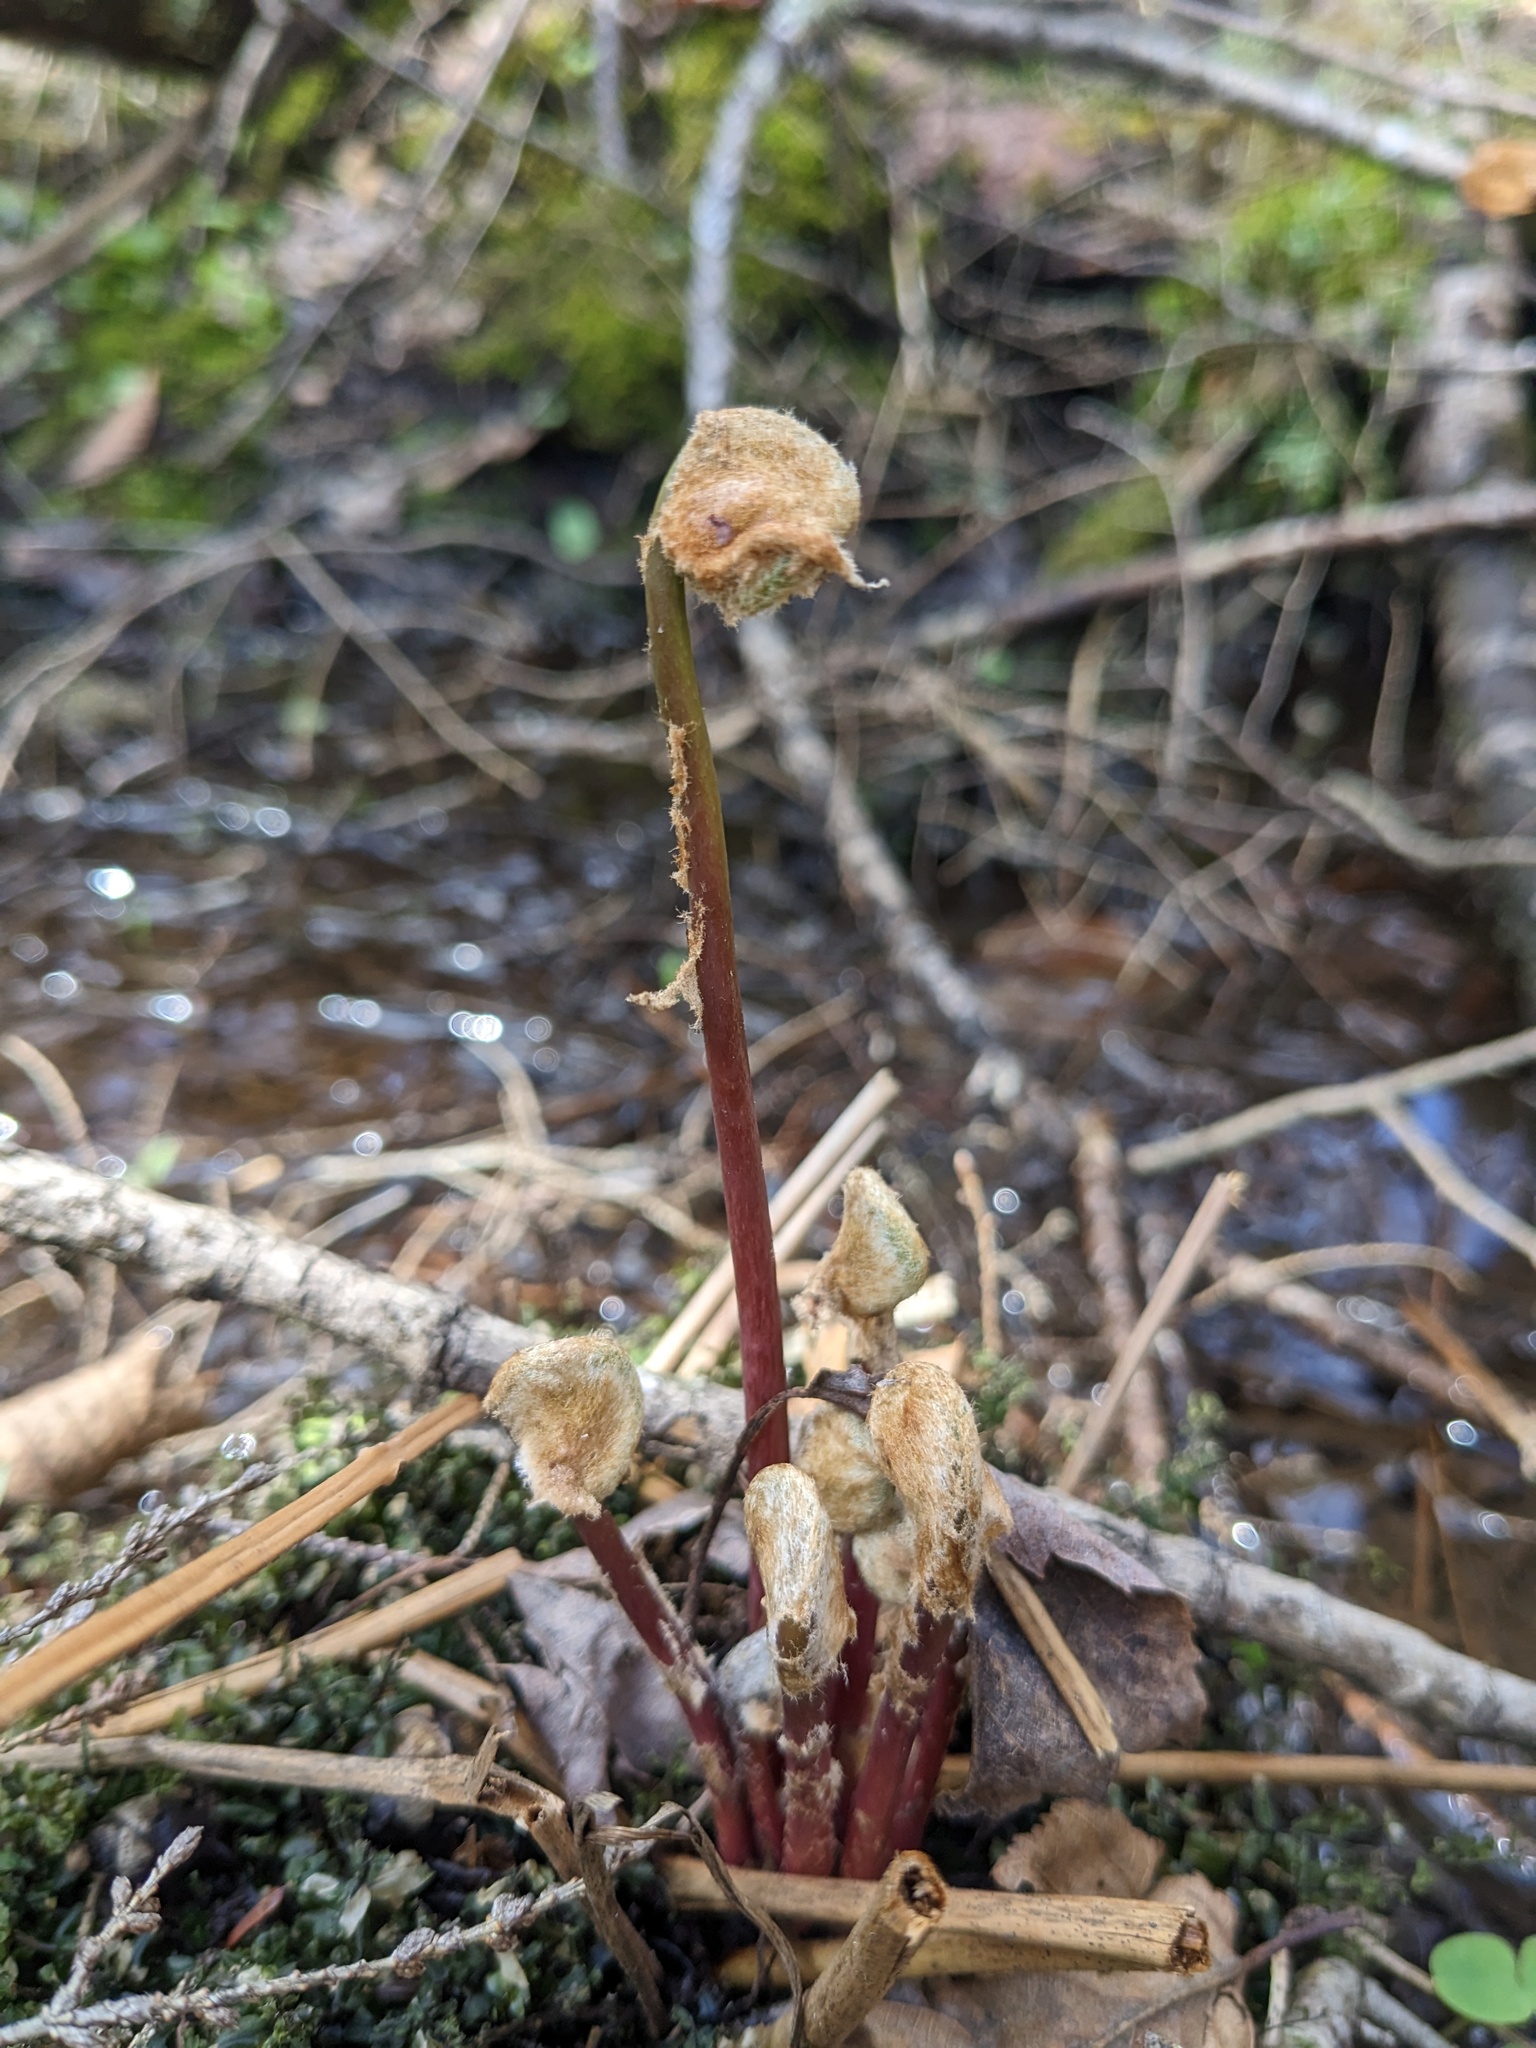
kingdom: Plantae
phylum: Tracheophyta
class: Polypodiopsida
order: Osmundales
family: Osmundaceae
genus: Osmunda
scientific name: Osmunda spectabilis
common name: American royal fern
